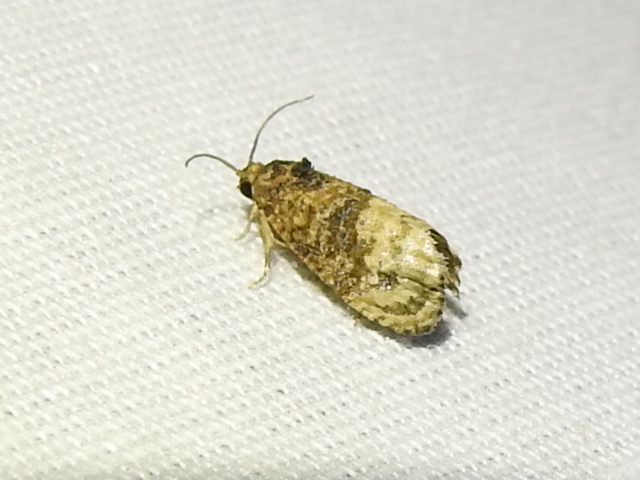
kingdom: Animalia
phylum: Arthropoda
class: Insecta
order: Lepidoptera
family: Tortricidae
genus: Ecdytolopha
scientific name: Ecdytolopha mana
